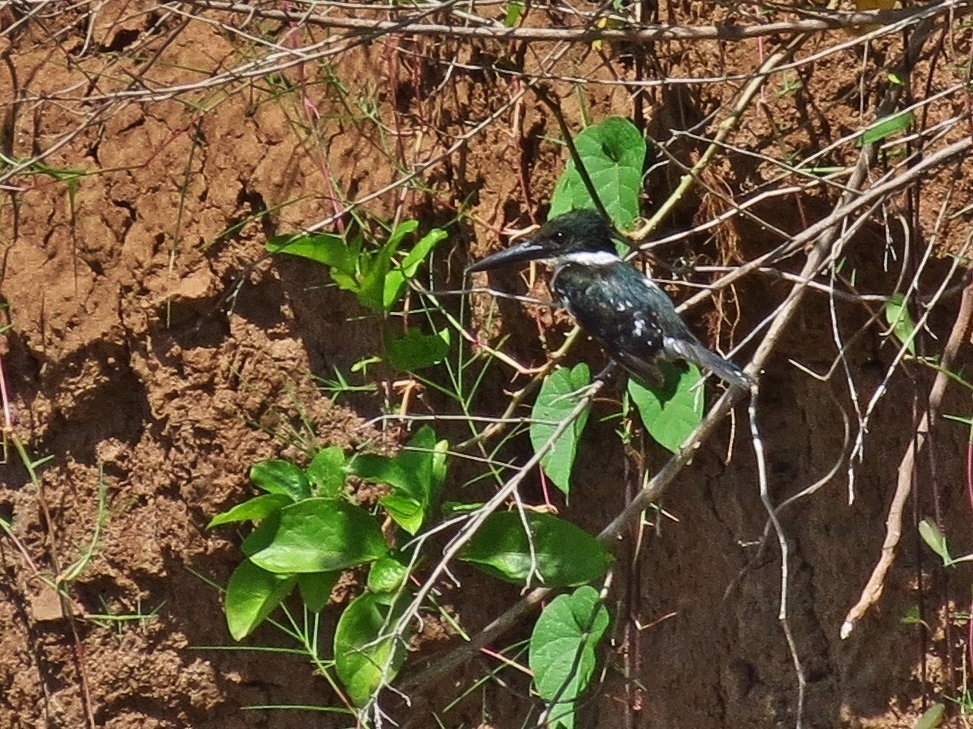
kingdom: Animalia
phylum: Chordata
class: Aves
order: Coraciiformes
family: Alcedinidae
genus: Chloroceryle
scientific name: Chloroceryle americana
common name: Green kingfisher
